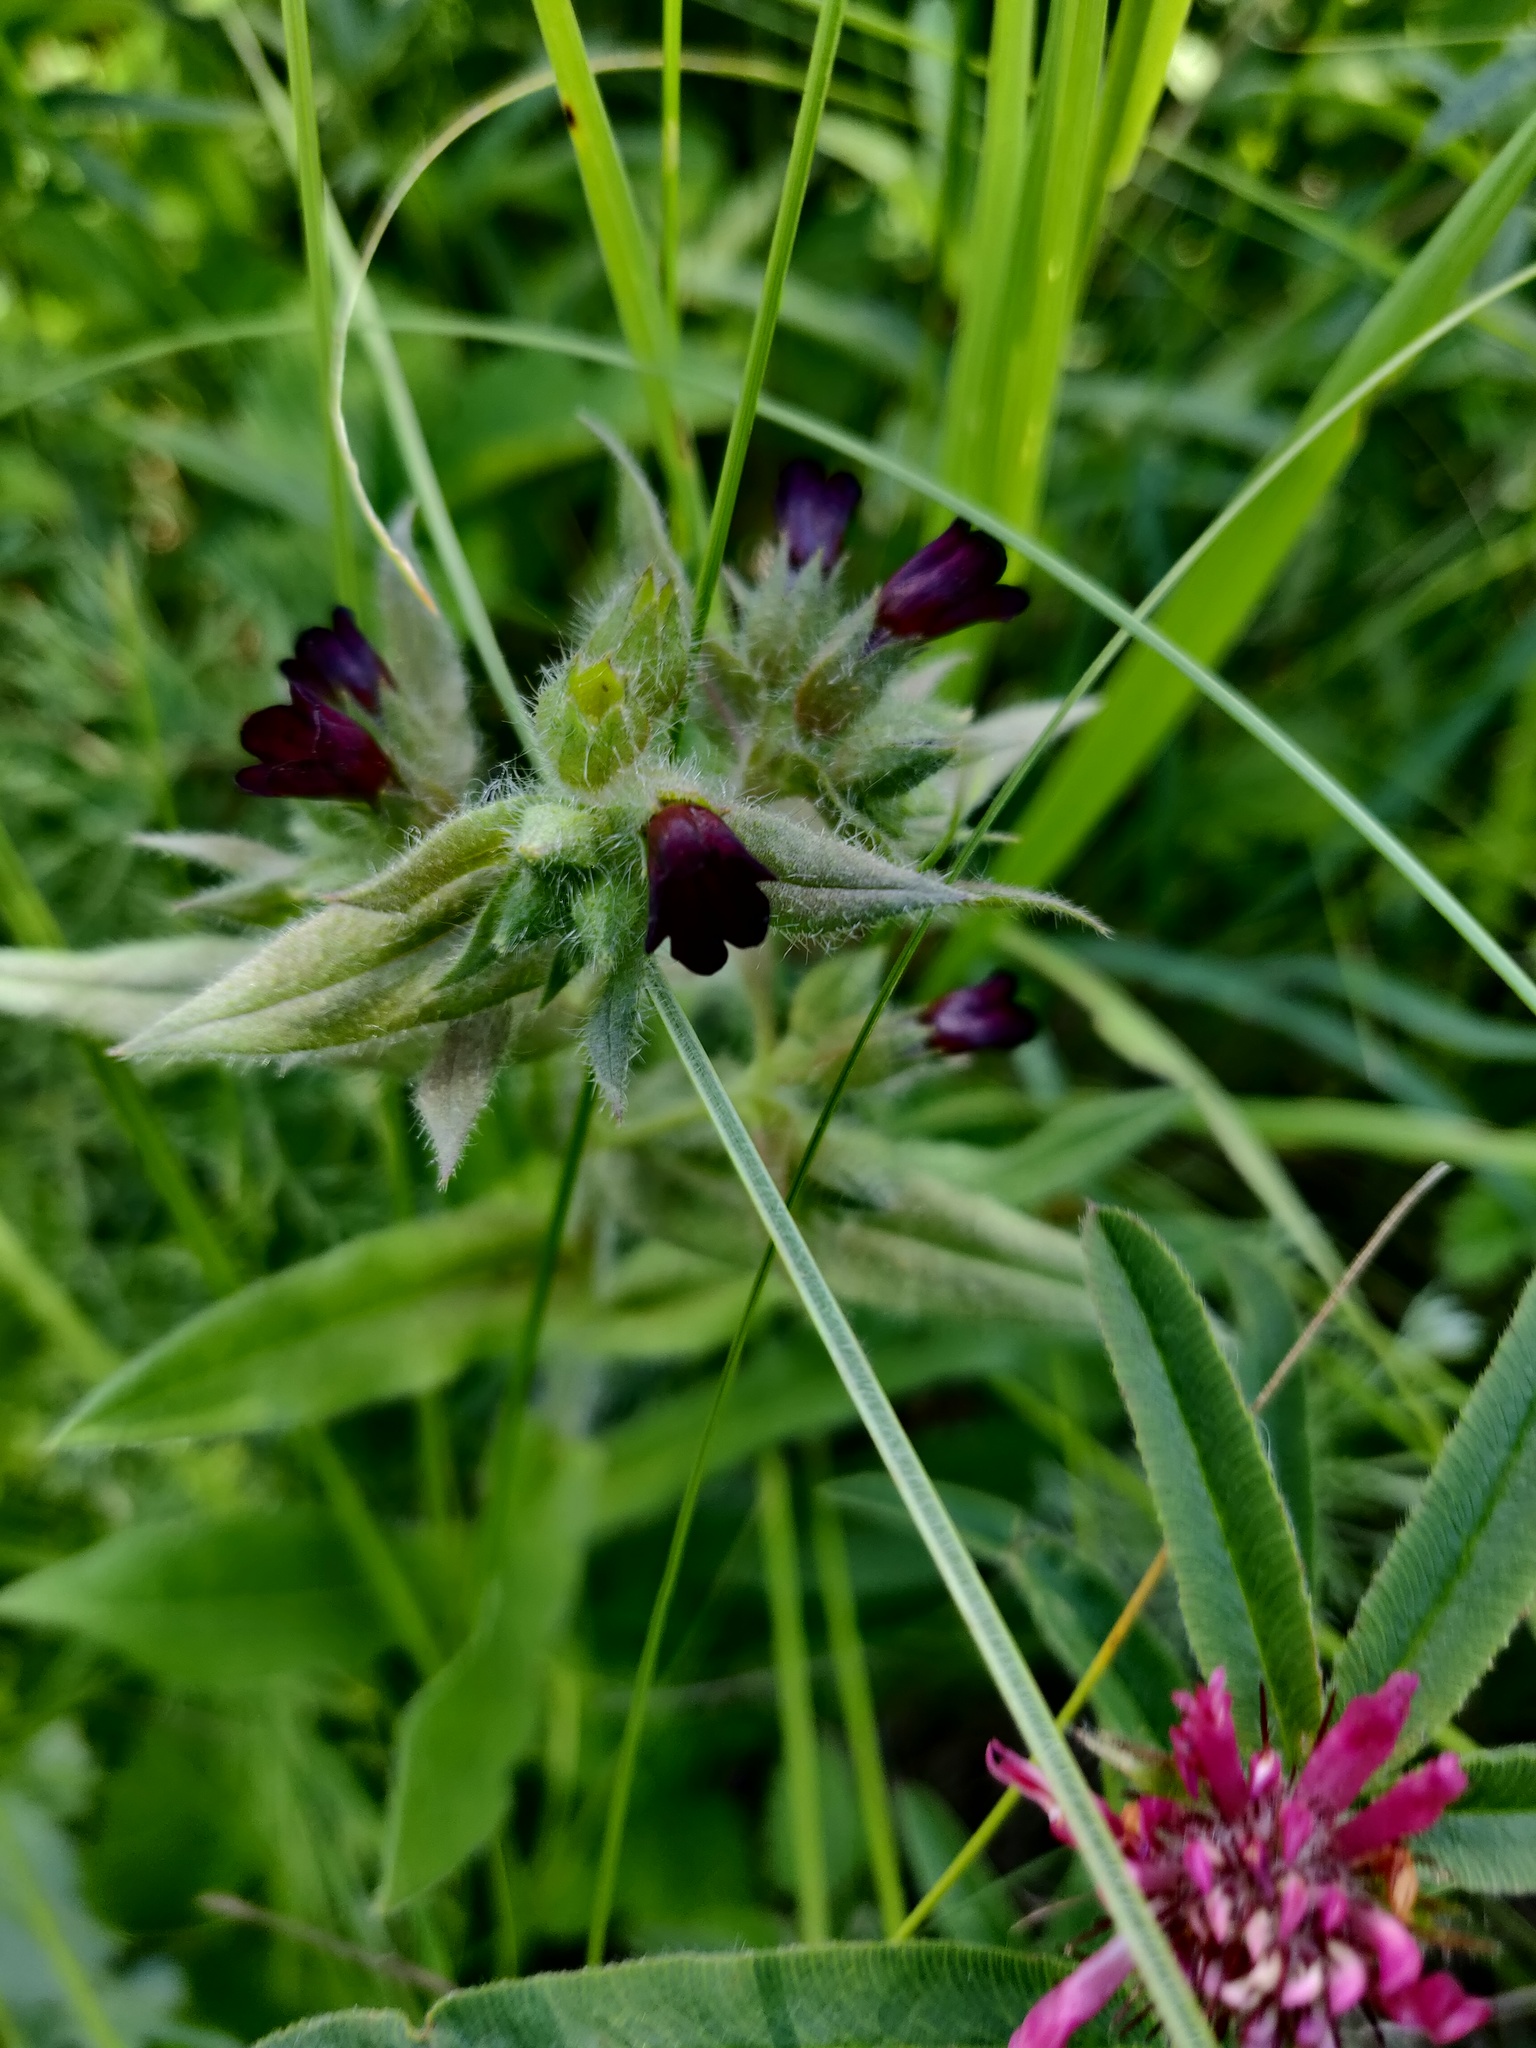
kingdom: Plantae
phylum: Tracheophyta
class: Magnoliopsida
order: Boraginales
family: Boraginaceae
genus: Nonea
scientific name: Nonea pulla
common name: Brown nonea
